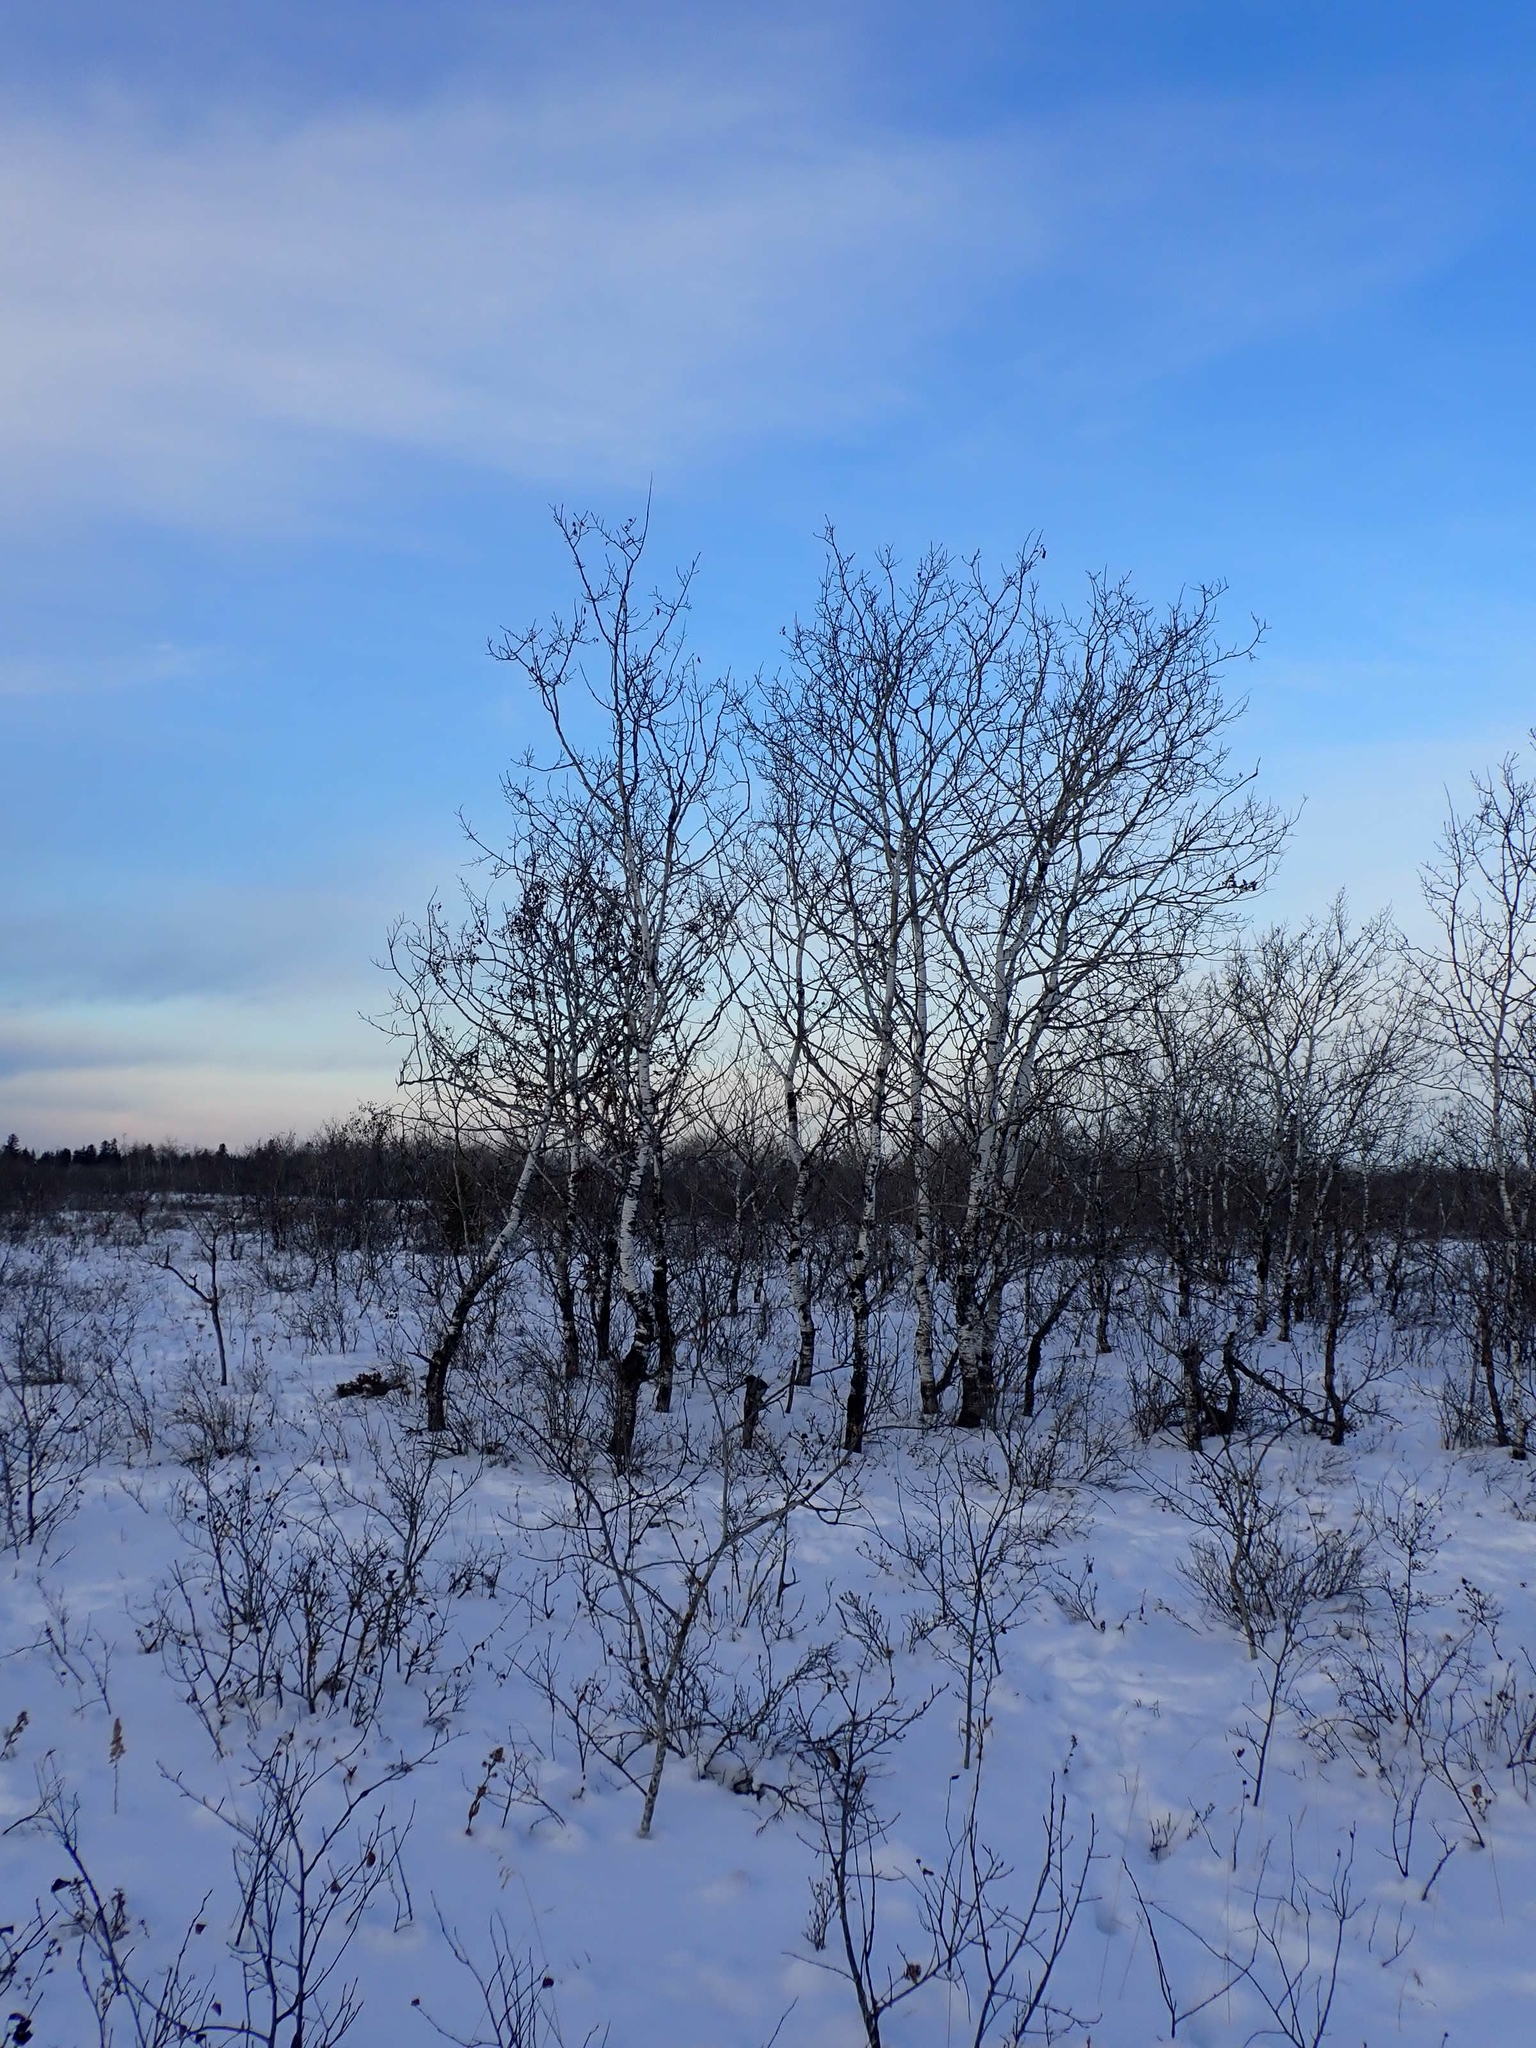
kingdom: Plantae
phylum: Tracheophyta
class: Magnoliopsida
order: Malpighiales
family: Salicaceae
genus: Populus
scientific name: Populus tremuloides
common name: Quaking aspen
